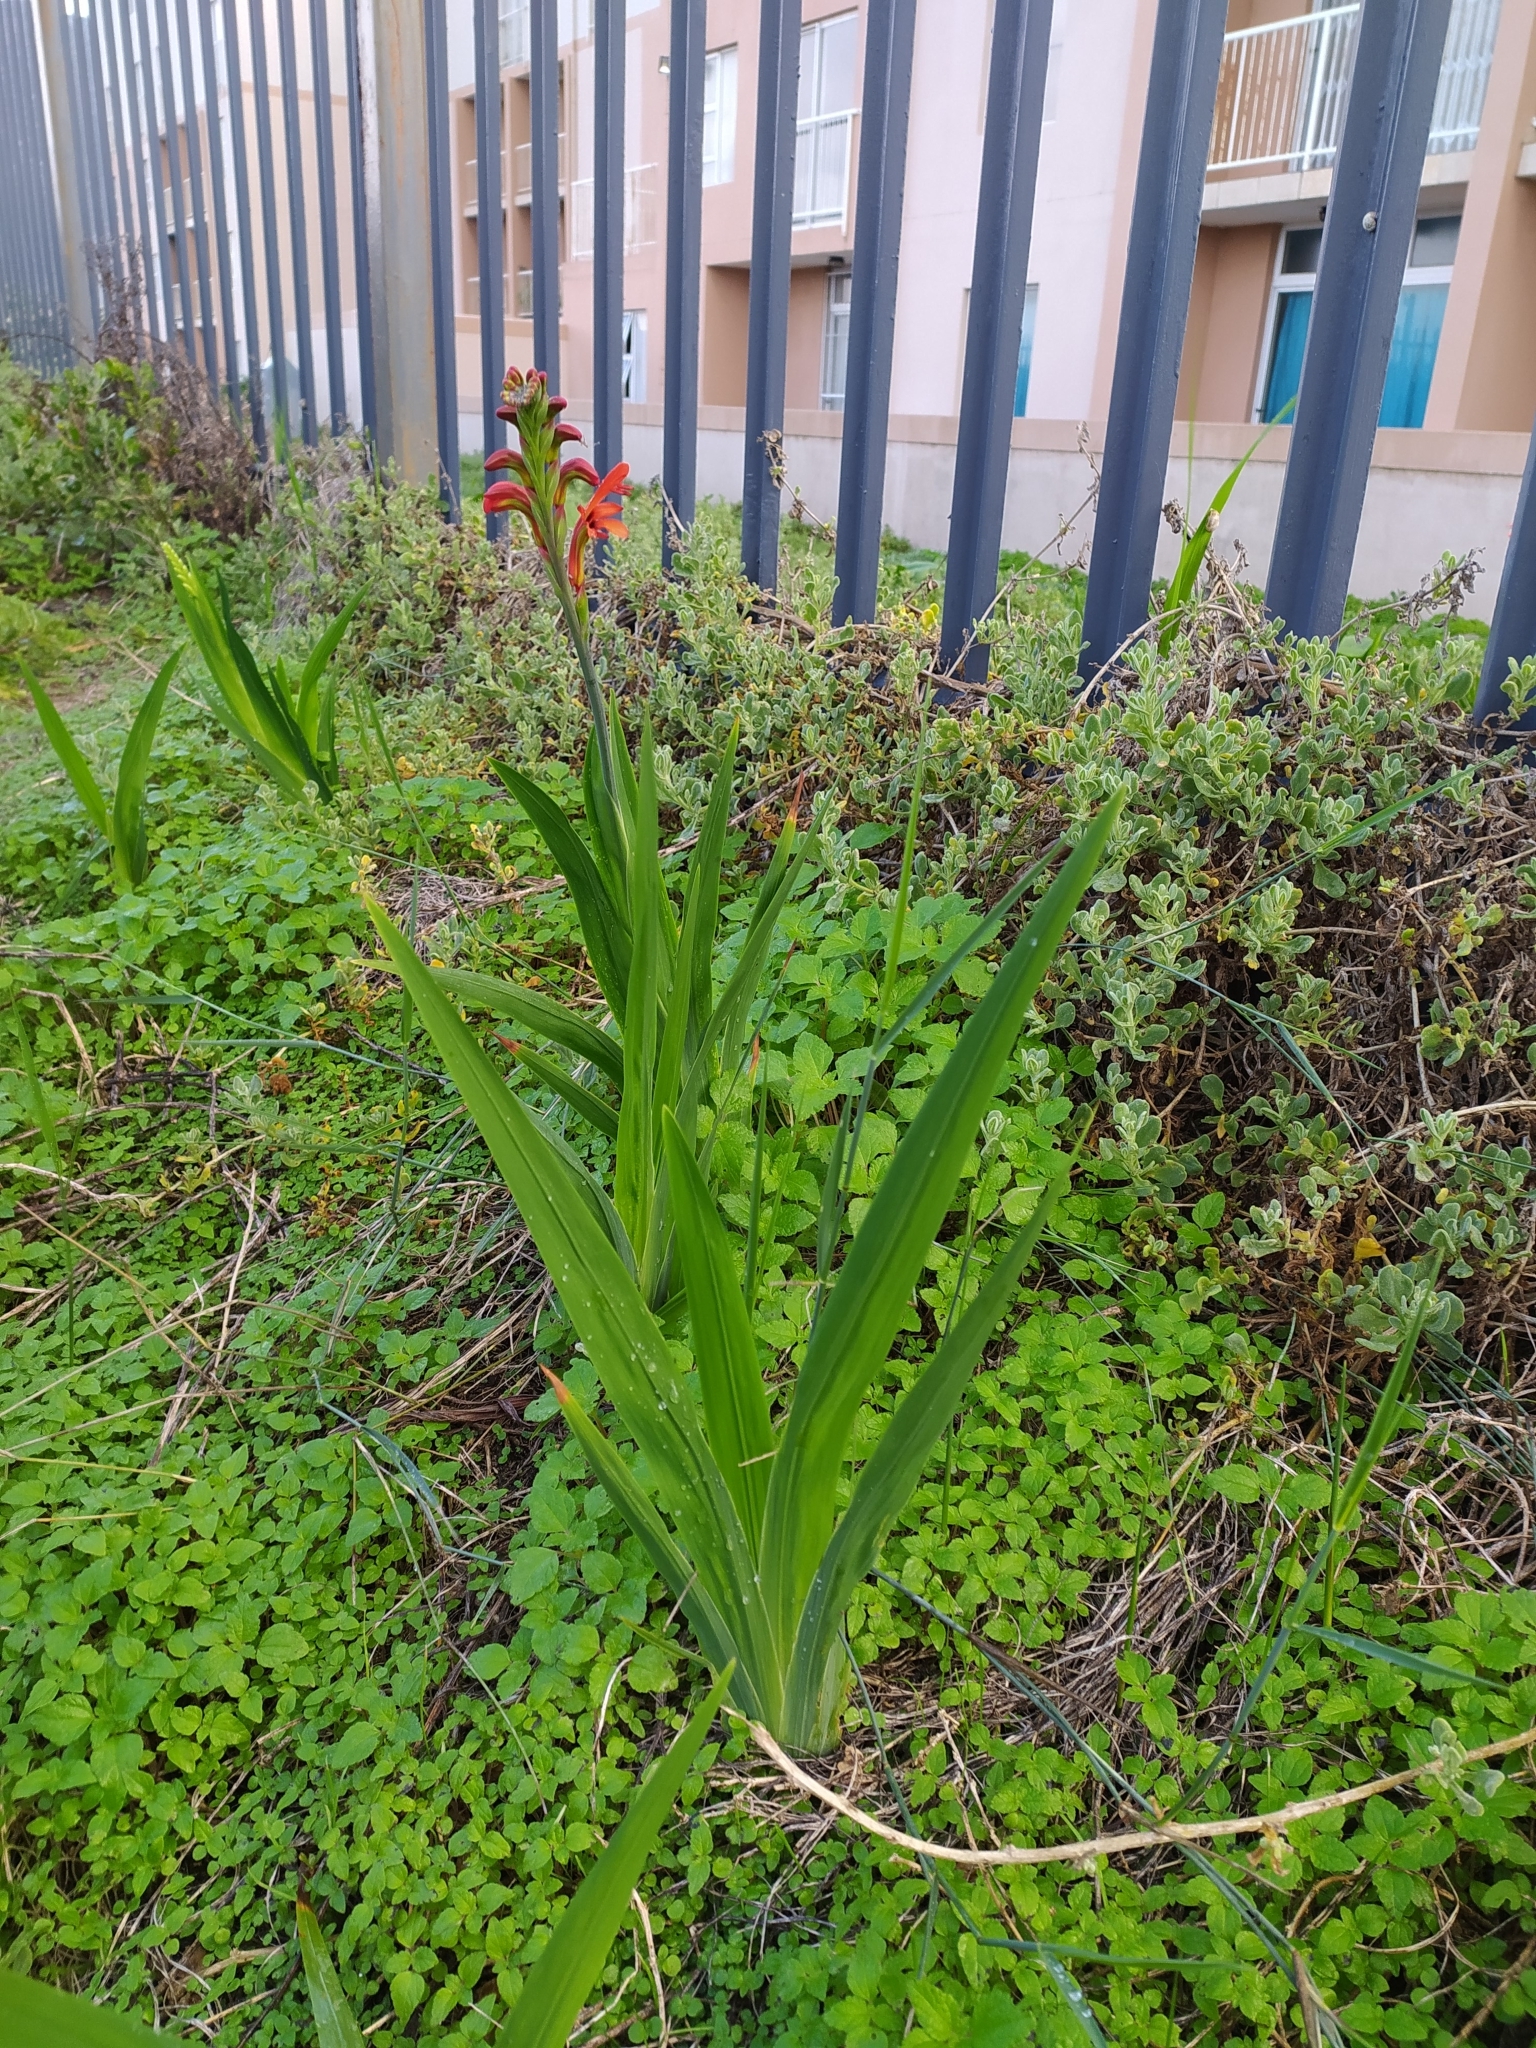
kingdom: Plantae
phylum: Tracheophyta
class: Liliopsida
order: Asparagales
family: Iridaceae
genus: Chasmanthe
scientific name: Chasmanthe aethiopica
